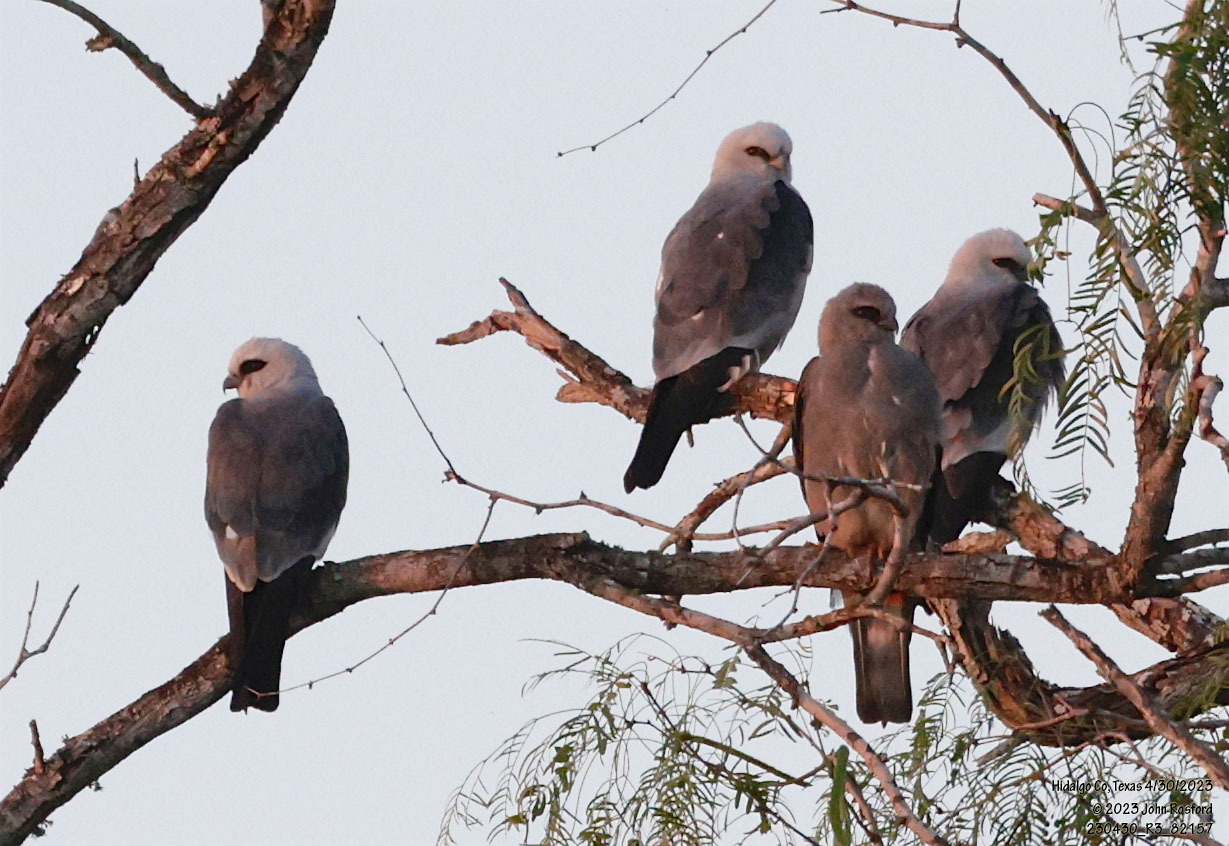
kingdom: Animalia
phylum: Chordata
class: Aves
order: Accipitriformes
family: Accipitridae
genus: Ictinia
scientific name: Ictinia mississippiensis
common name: Mississippi kite
